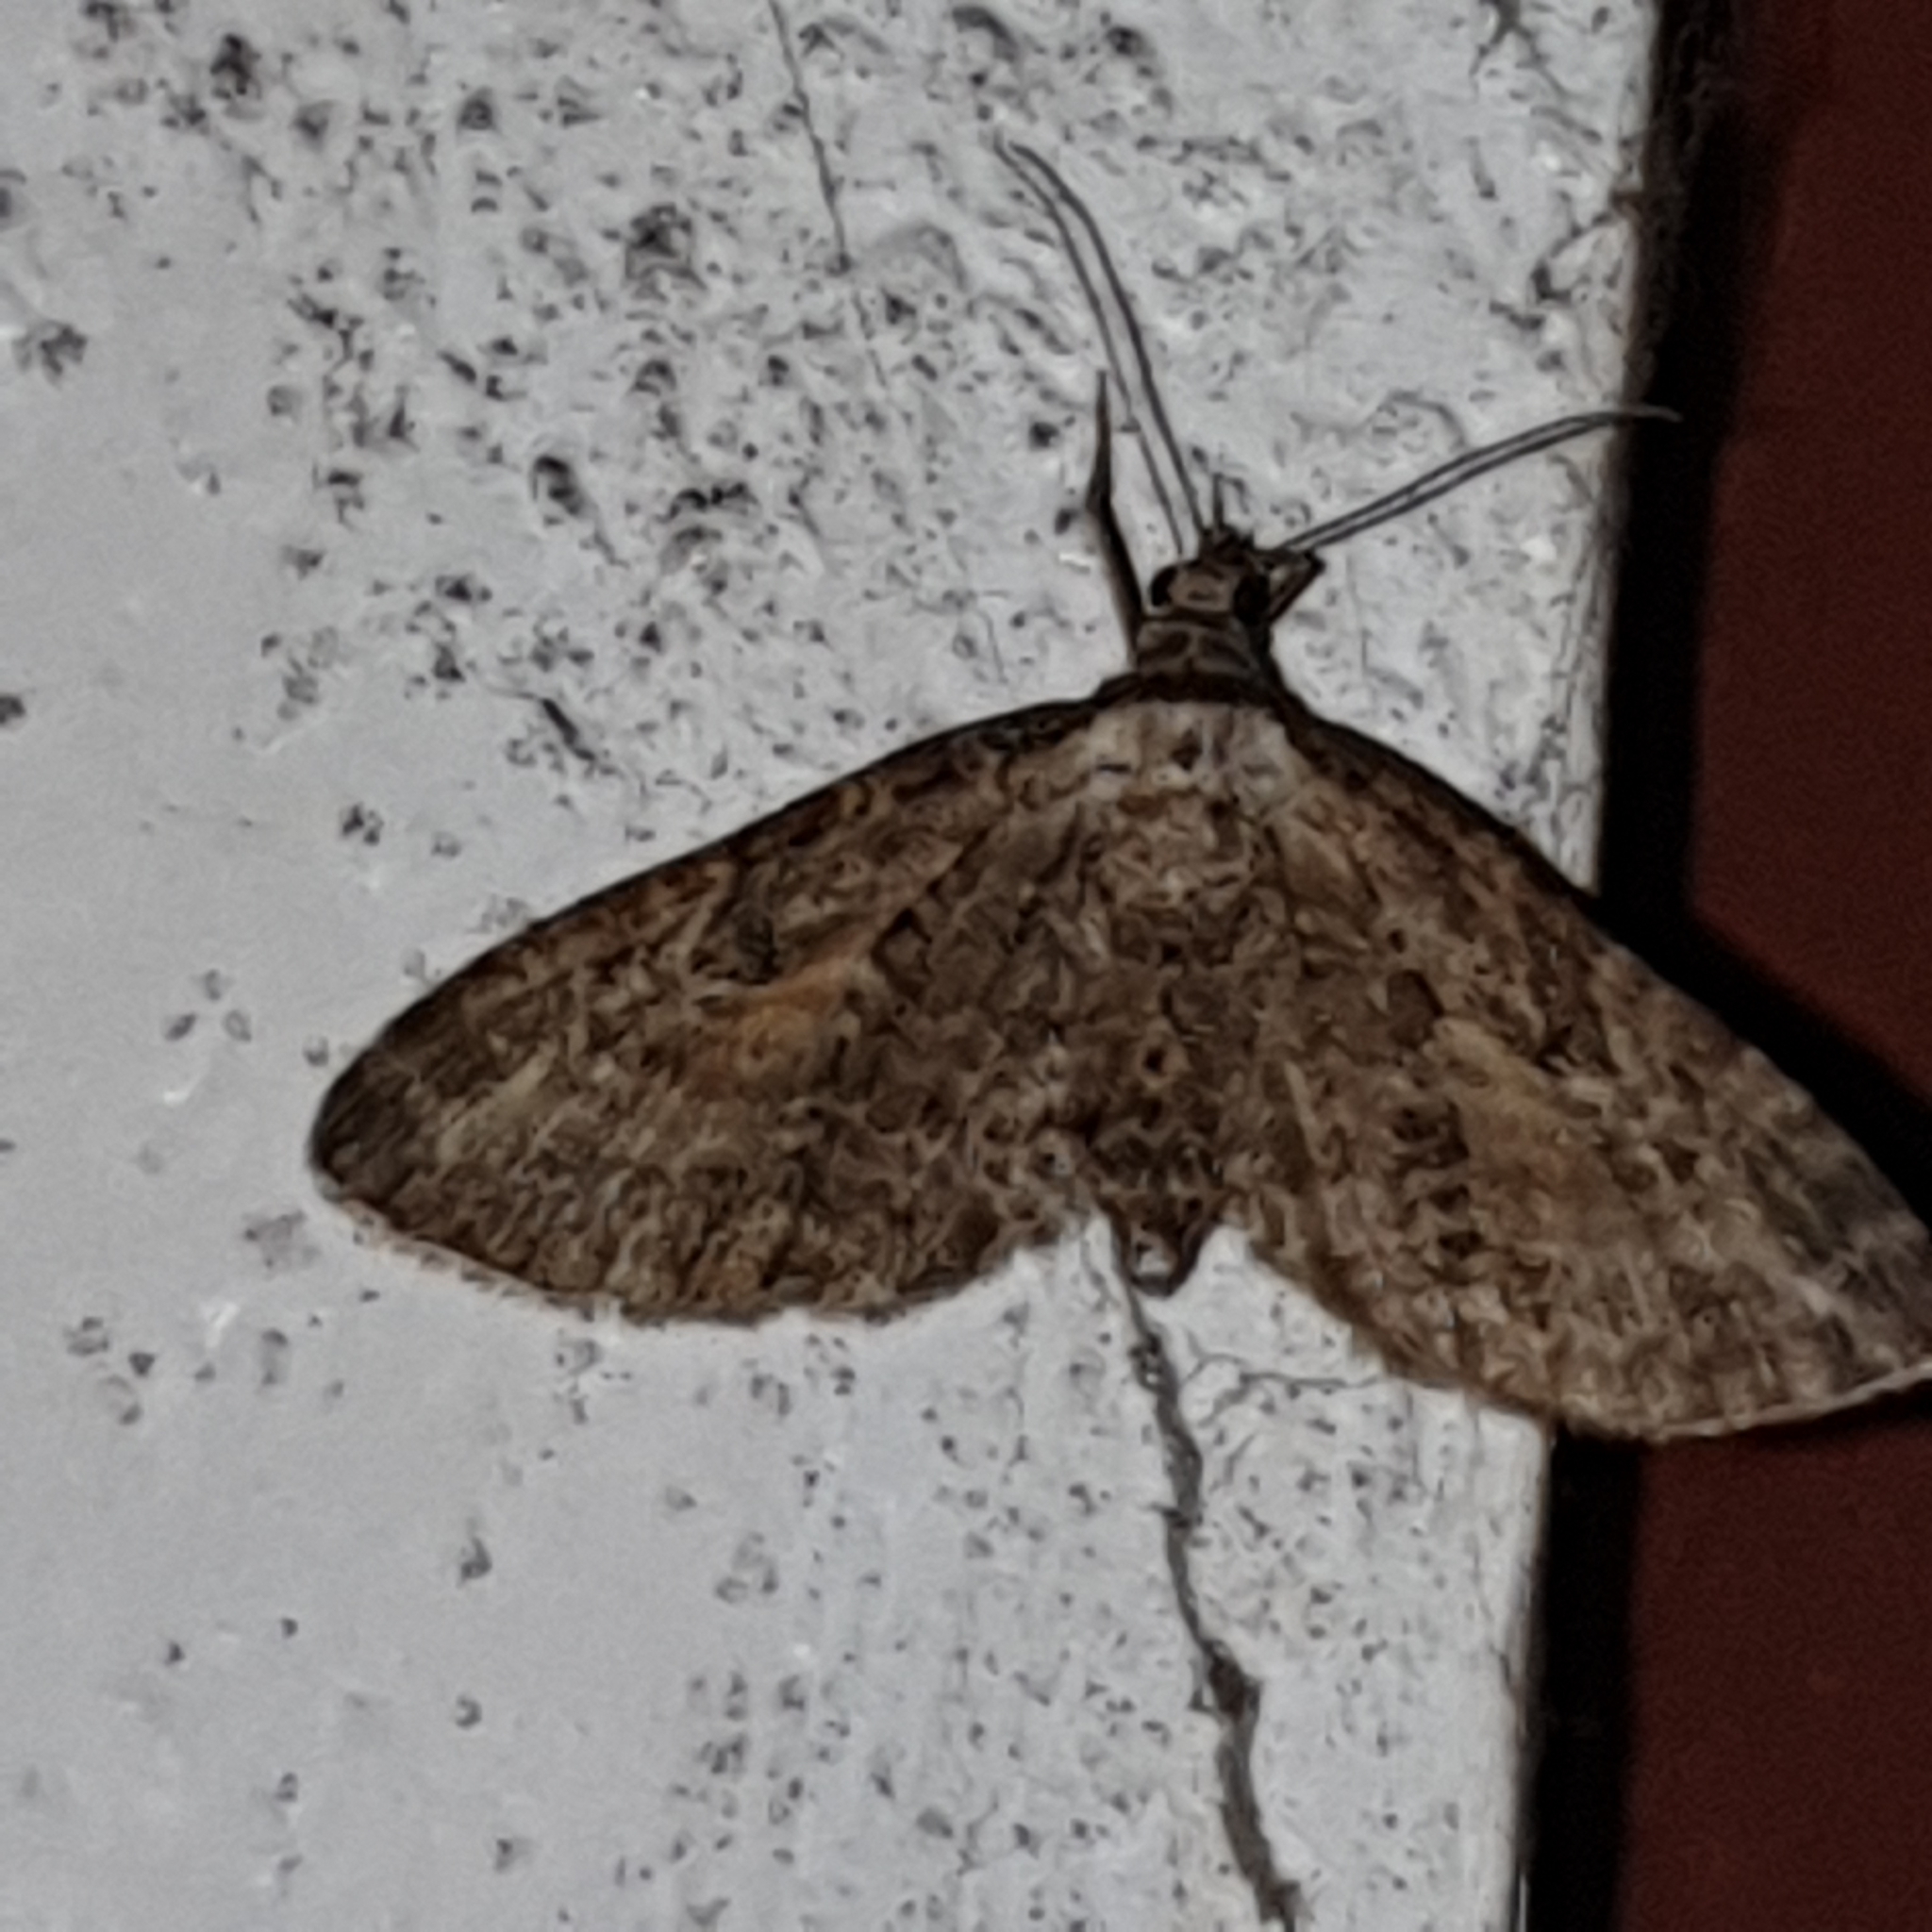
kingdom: Animalia
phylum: Arthropoda
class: Insecta
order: Lepidoptera
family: Geometridae
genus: Eupithecia
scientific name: Eupithecia icterata
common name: Tawny speckled pug
